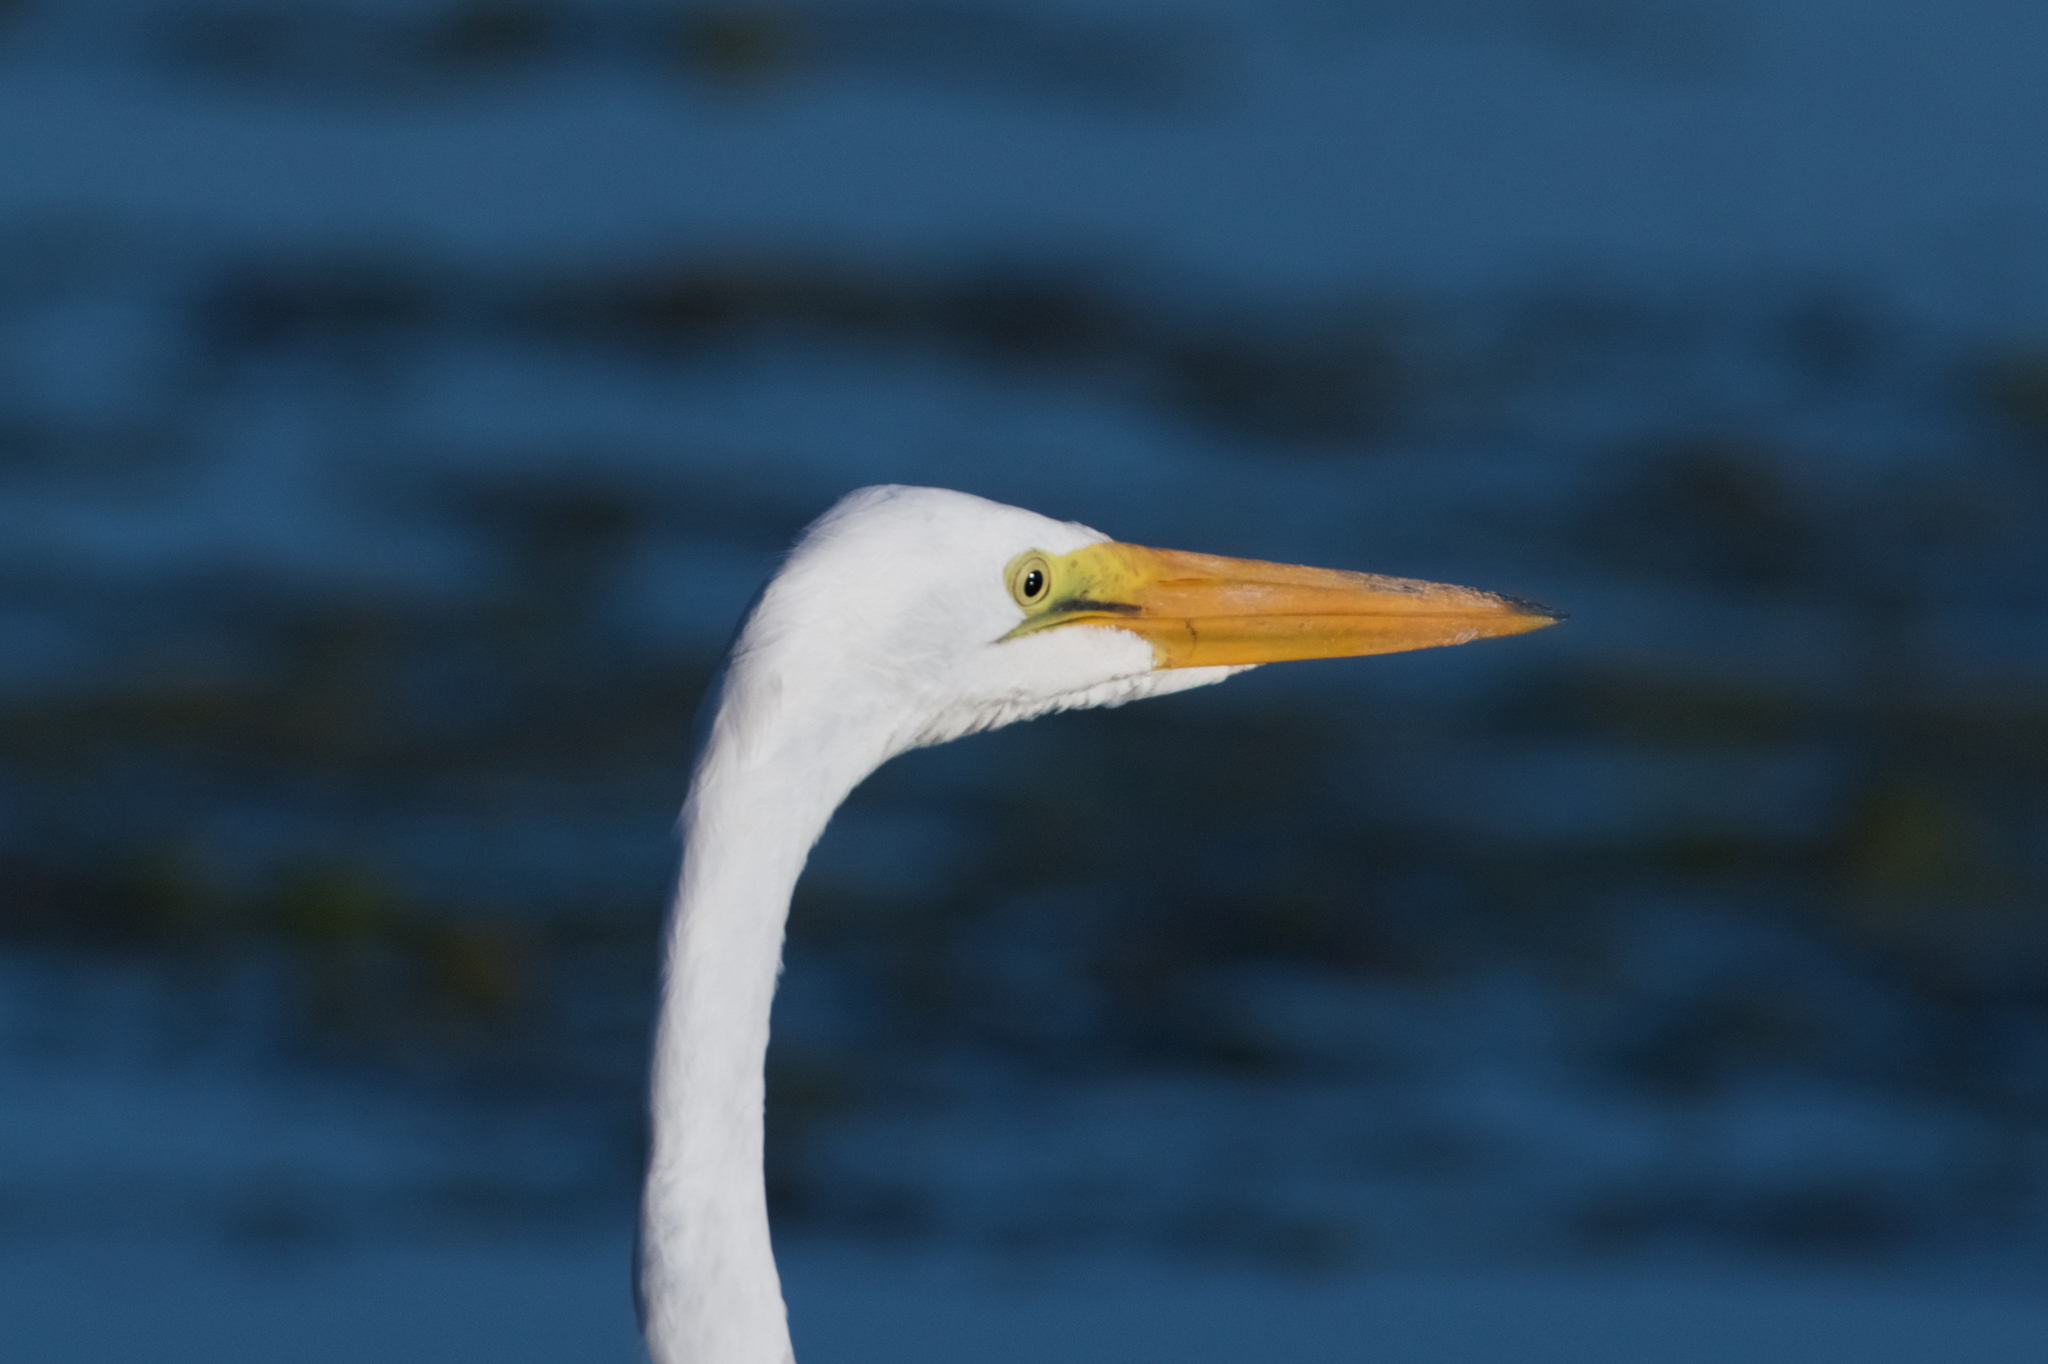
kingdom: Animalia
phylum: Chordata
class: Aves
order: Pelecaniformes
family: Ardeidae
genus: Ardea
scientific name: Ardea alba
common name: Great egret
